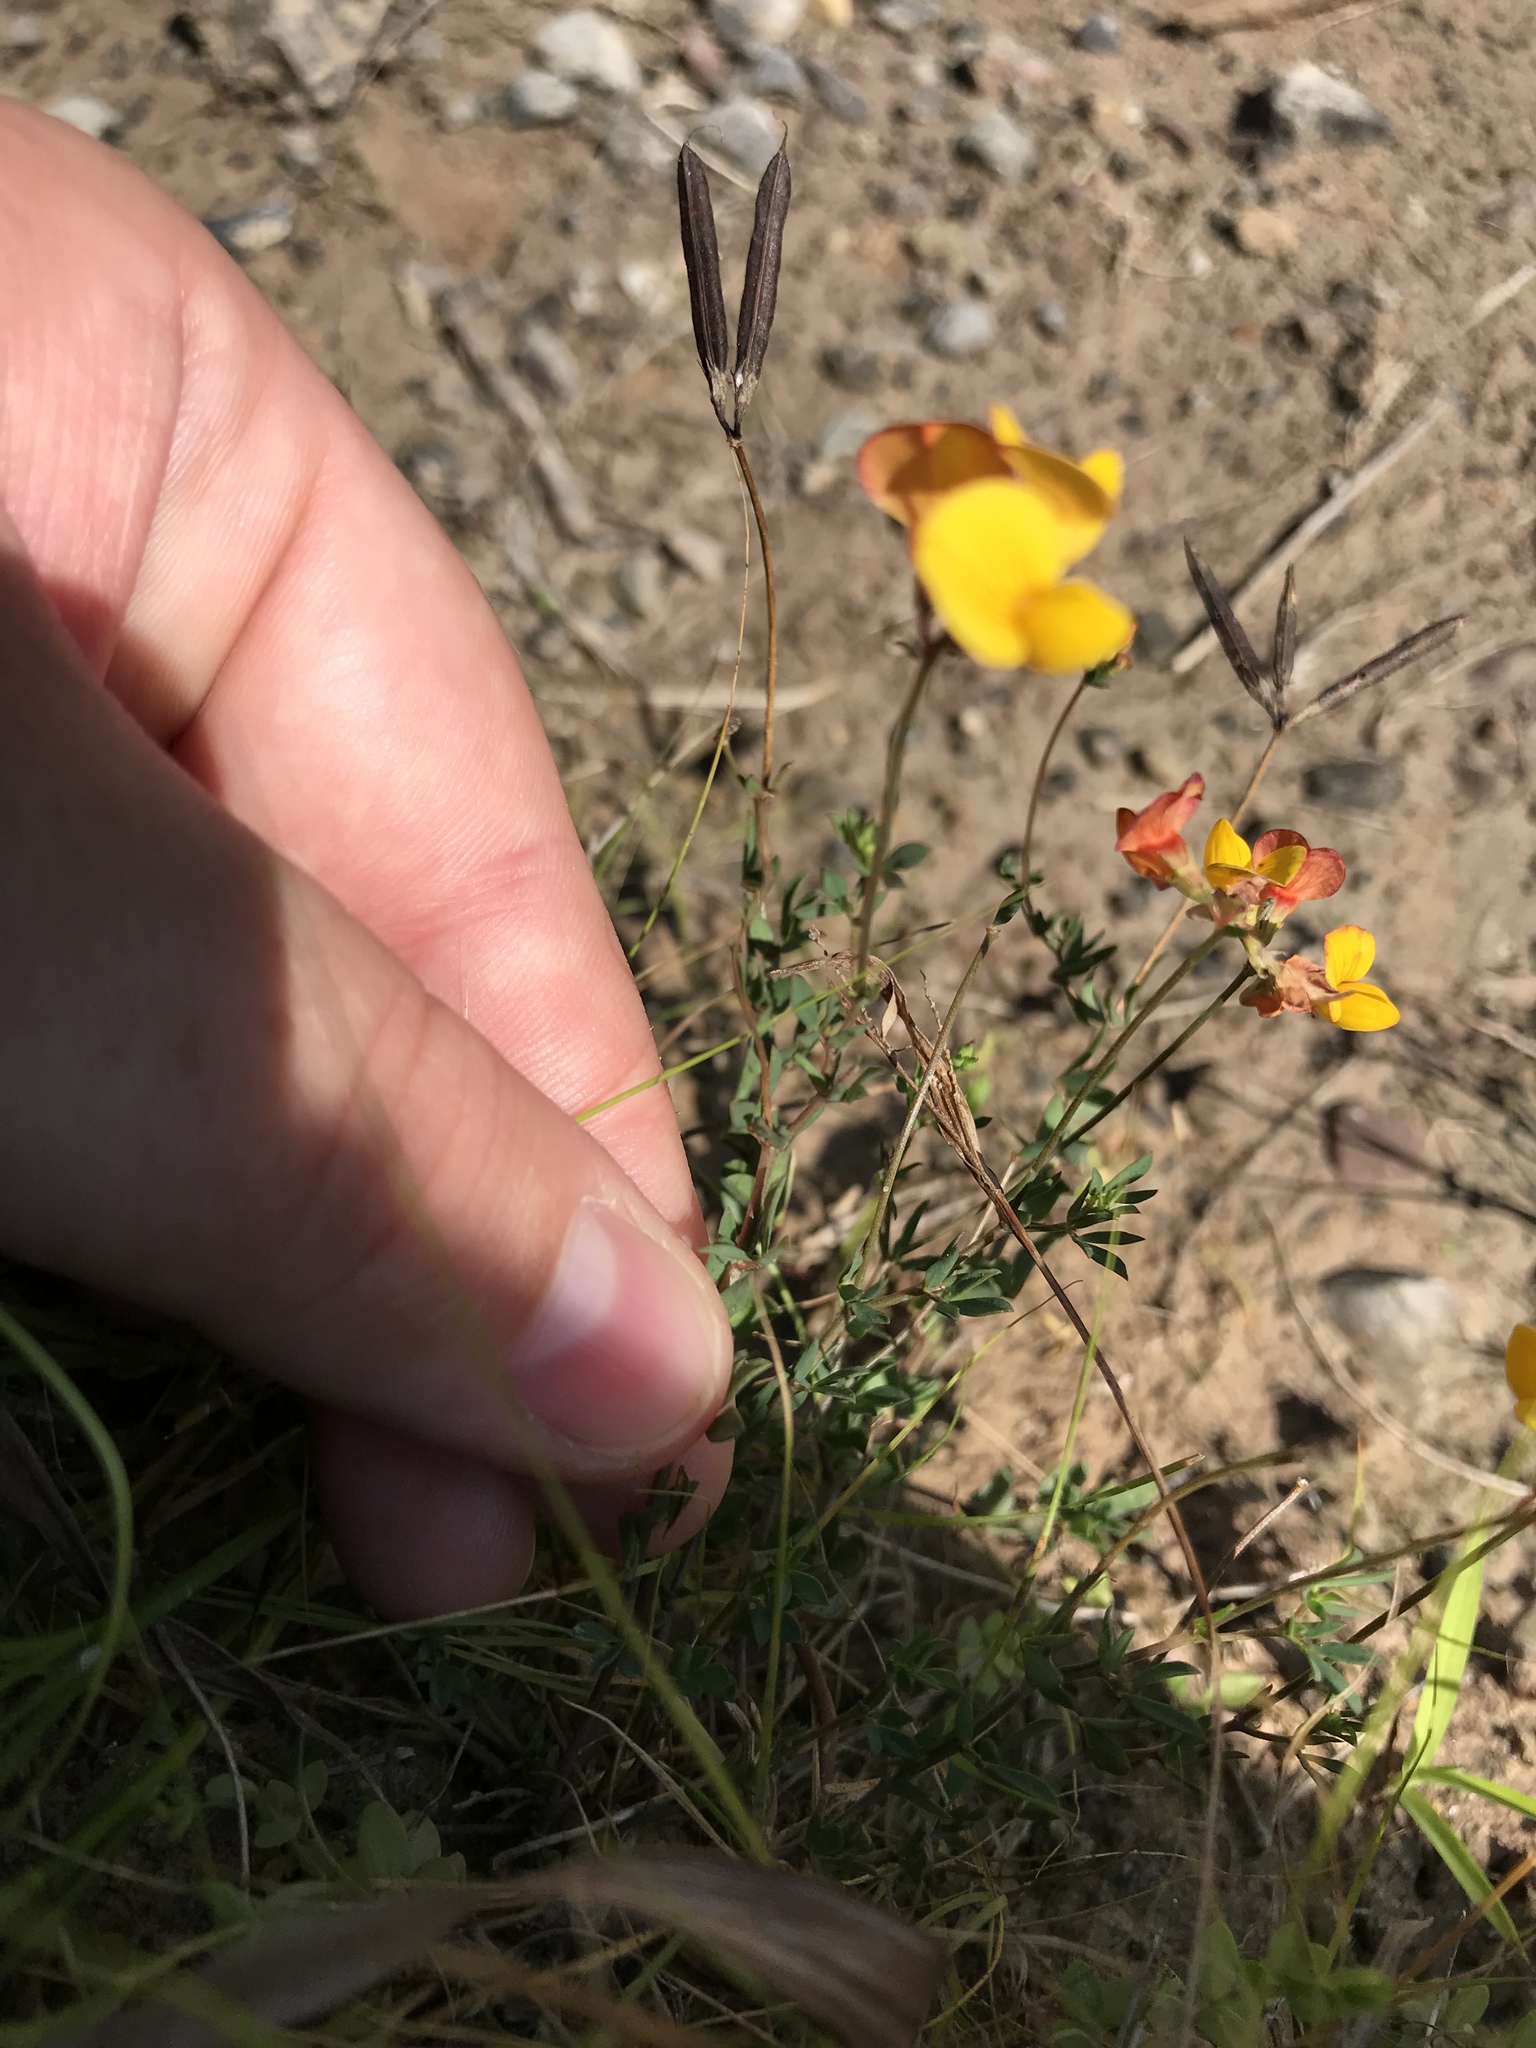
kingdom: Plantae
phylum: Tracheophyta
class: Magnoliopsida
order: Fabales
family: Fabaceae
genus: Lotus
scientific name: Lotus corniculatus
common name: Common bird's-foot-trefoil
